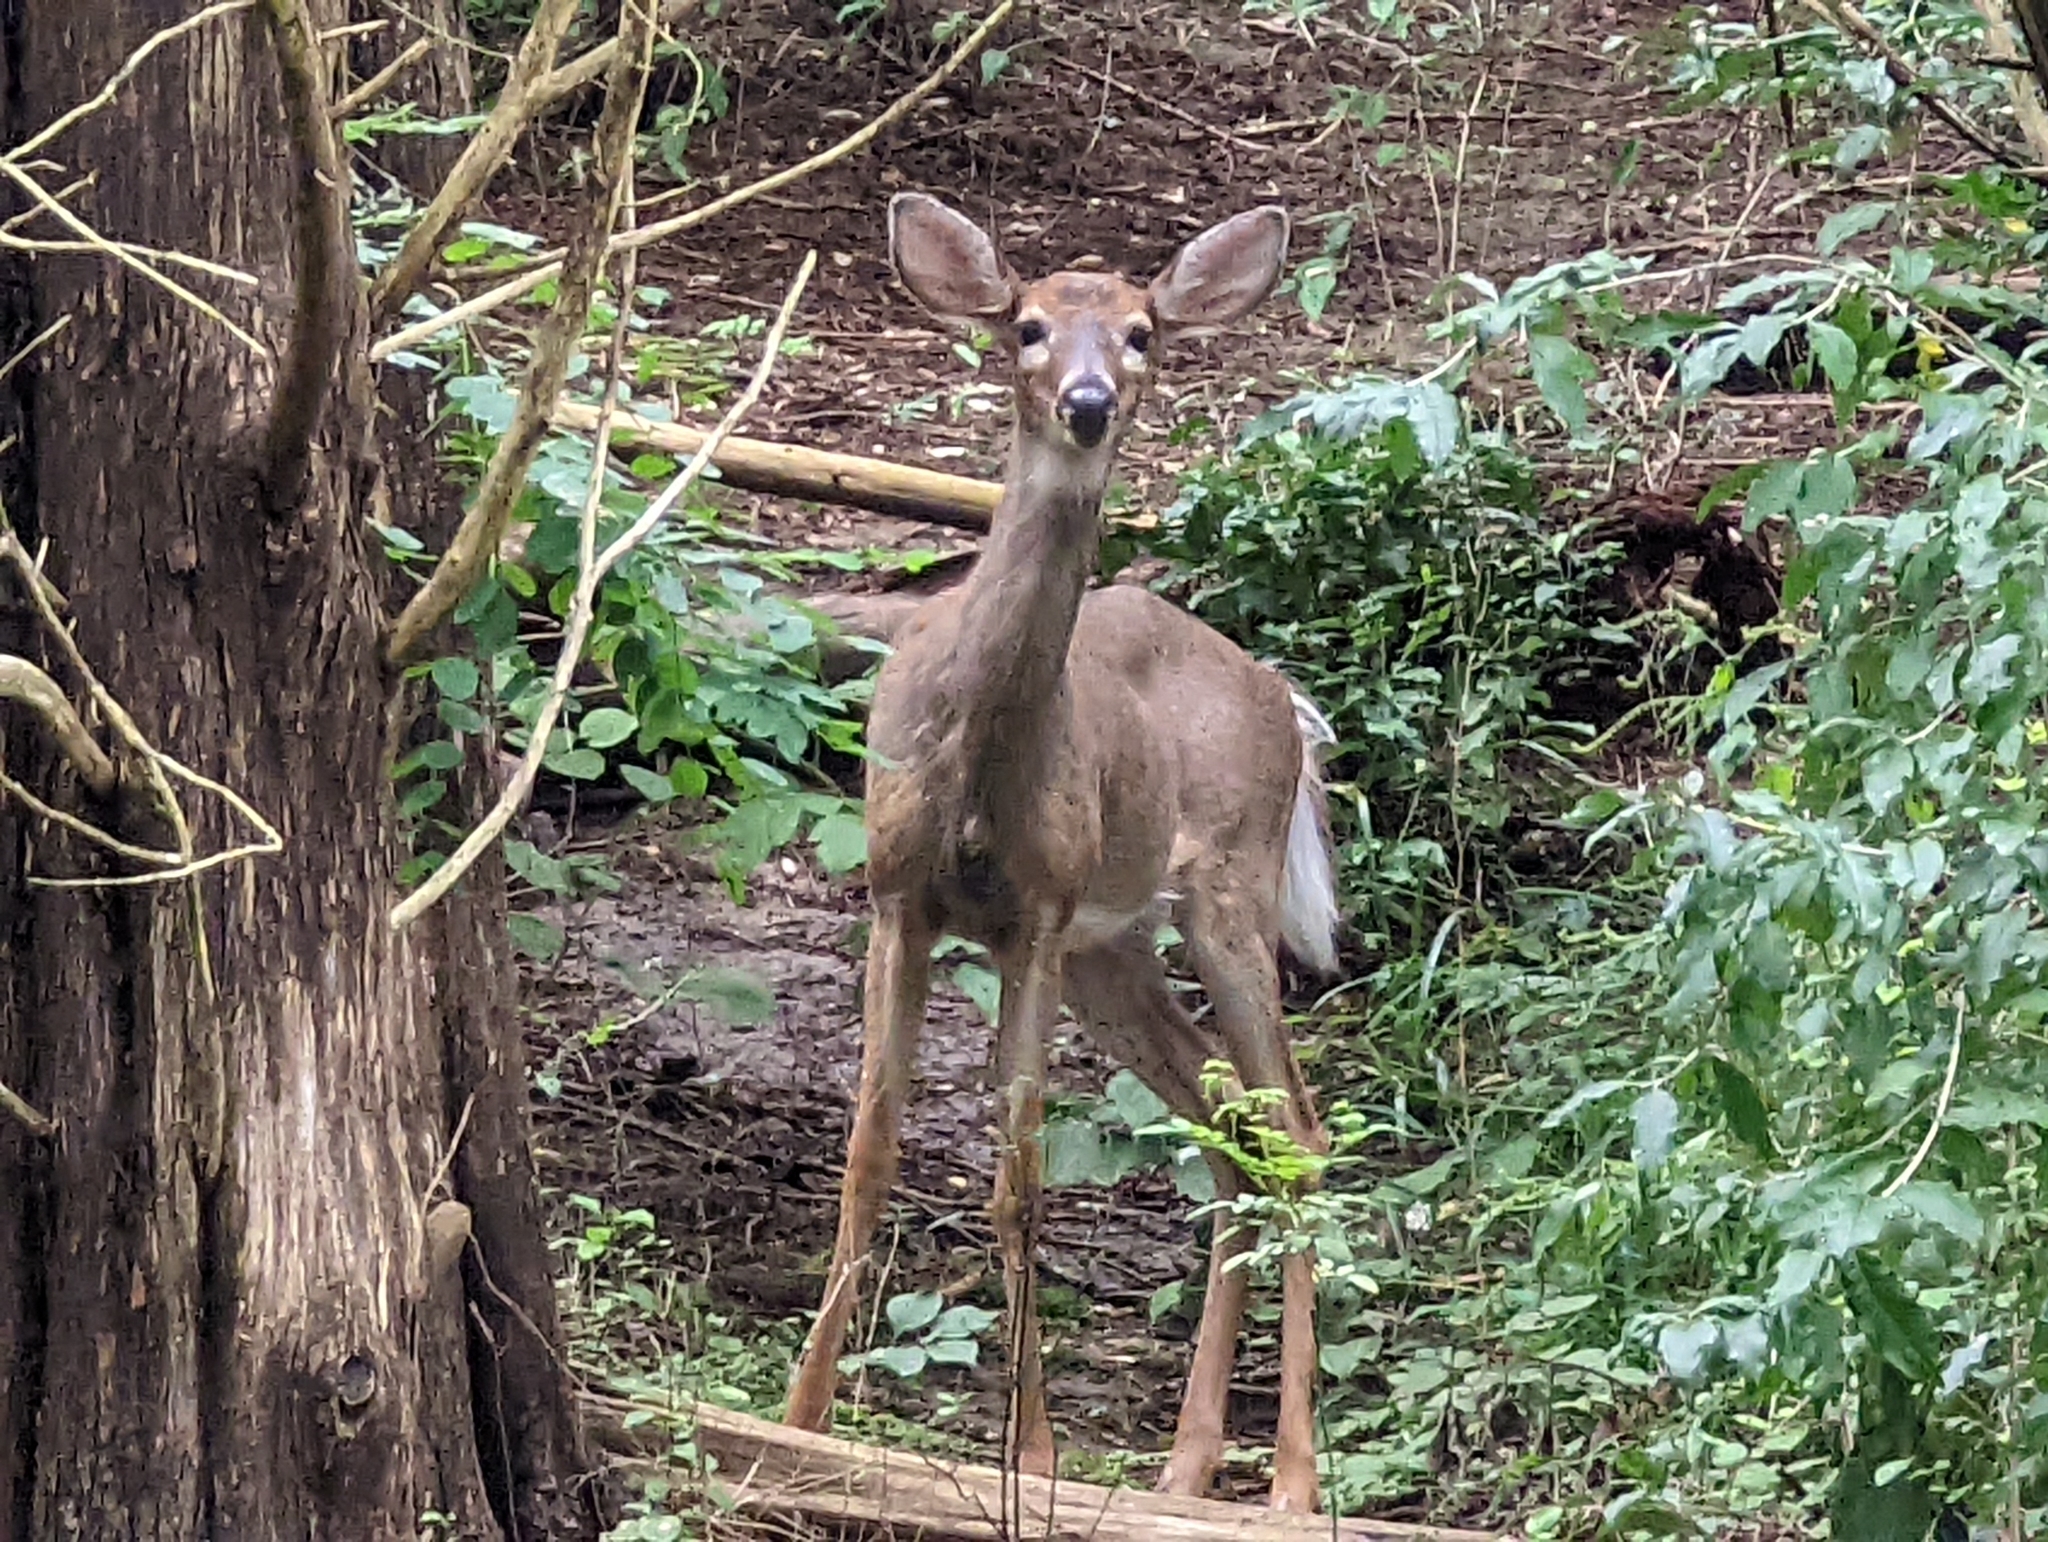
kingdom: Animalia
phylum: Chordata
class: Mammalia
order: Artiodactyla
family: Cervidae
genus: Odocoileus
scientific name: Odocoileus virginianus
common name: White-tailed deer
